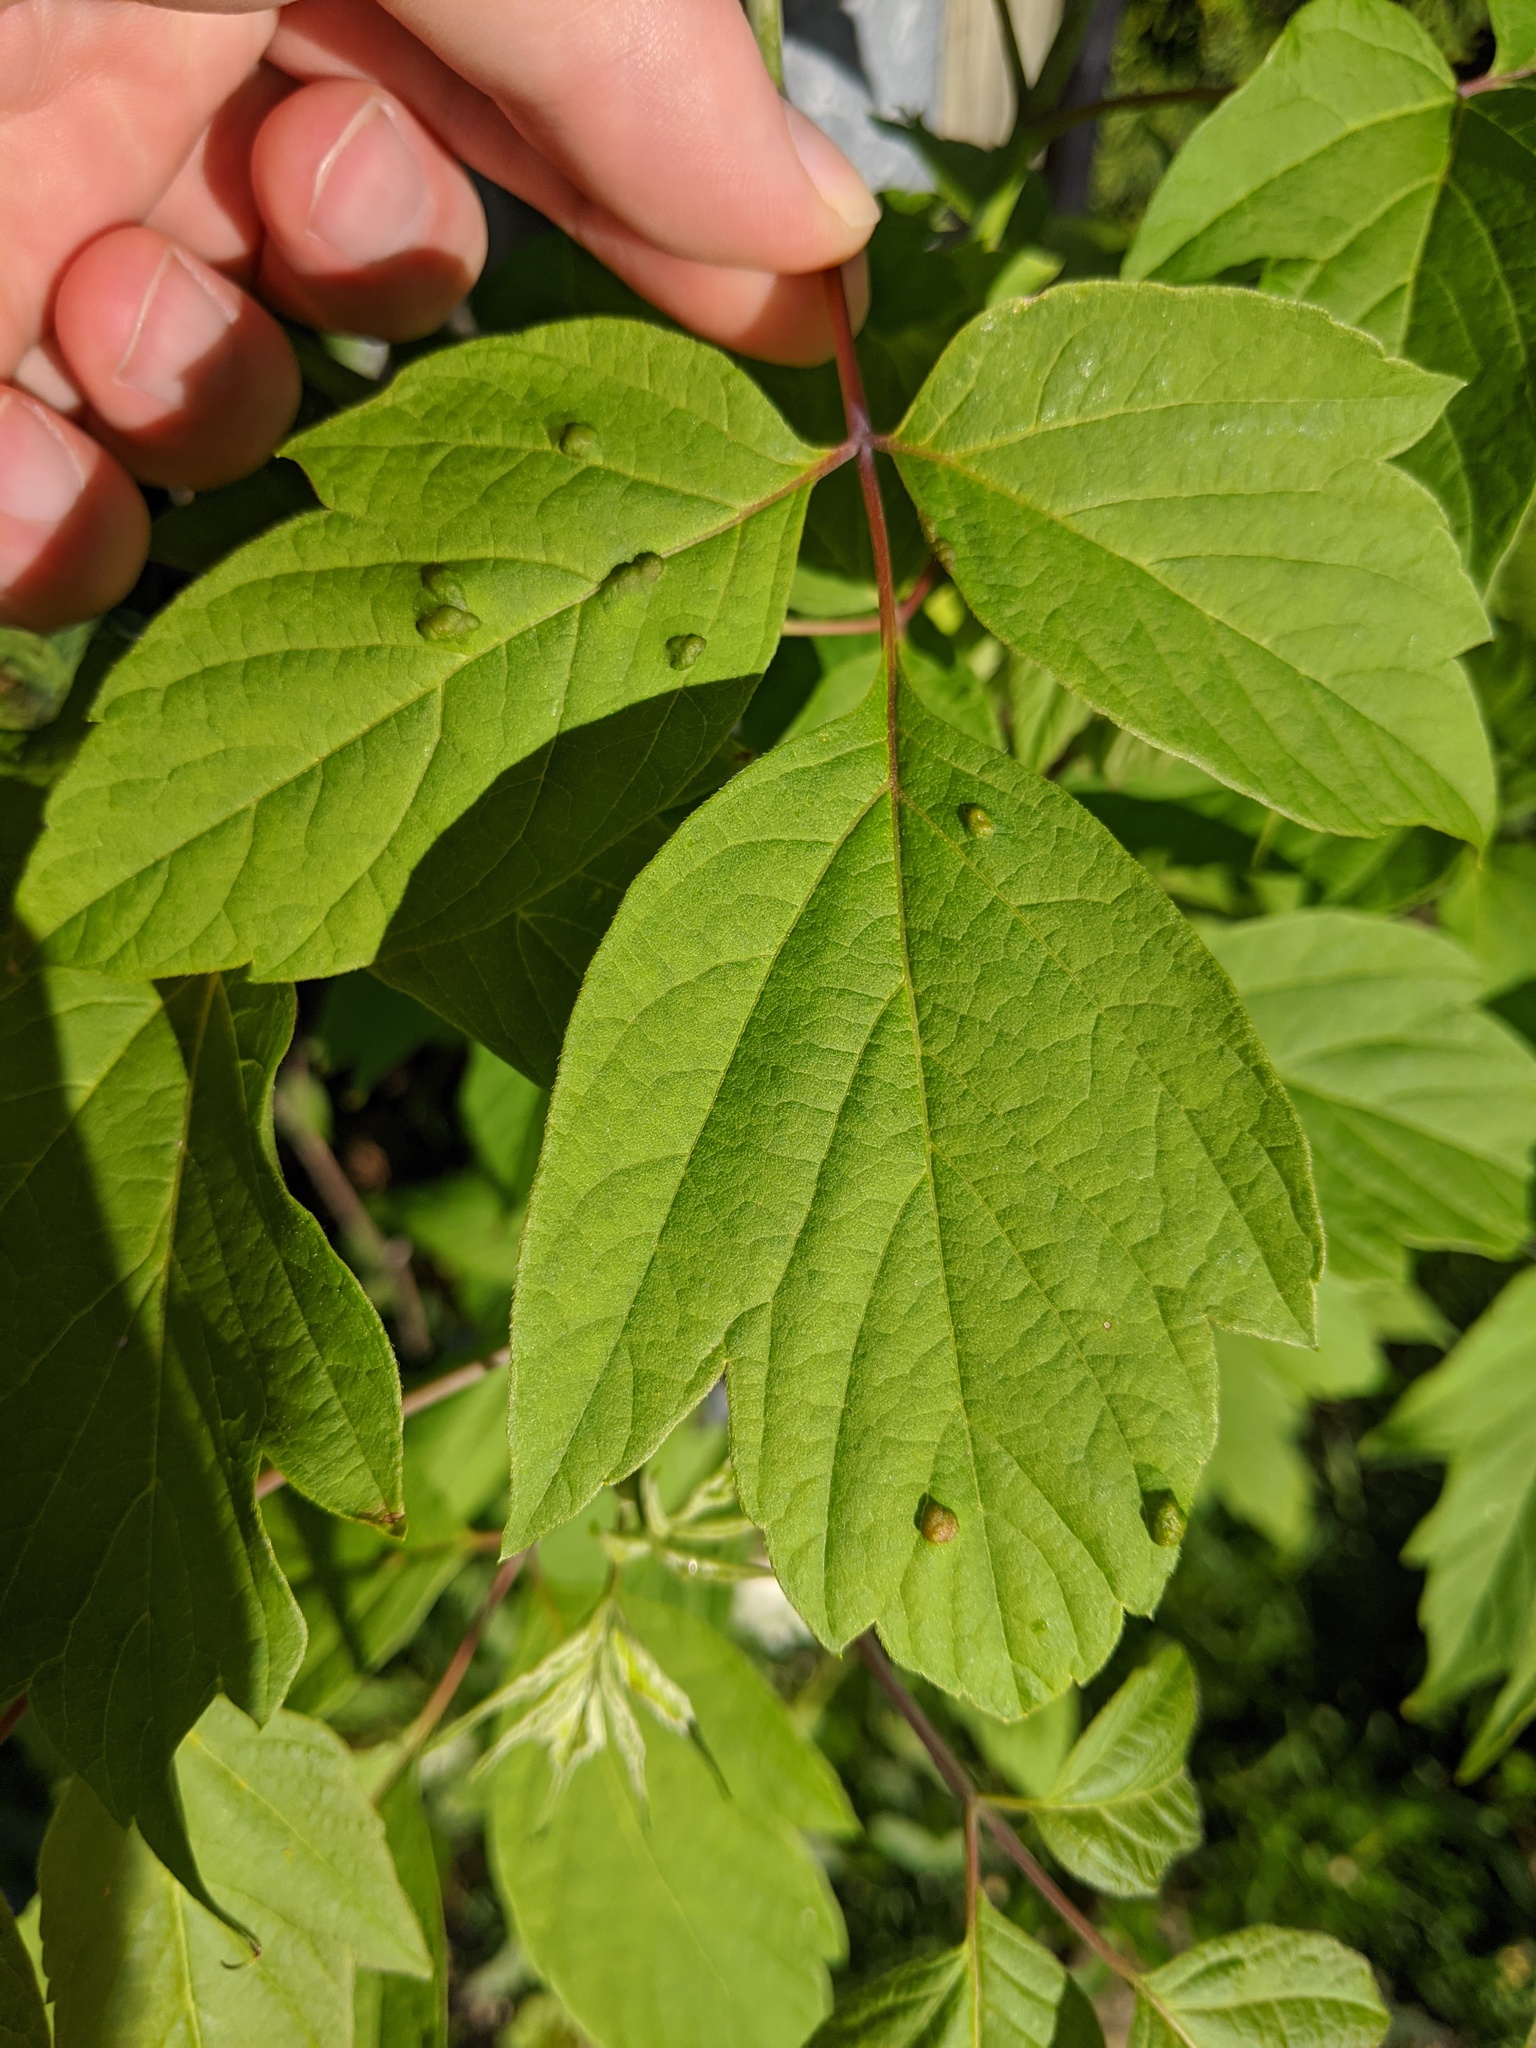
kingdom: Animalia
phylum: Arthropoda
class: Arachnida
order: Trombidiformes
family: Eriophyidae
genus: Aceria
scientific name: Aceria
